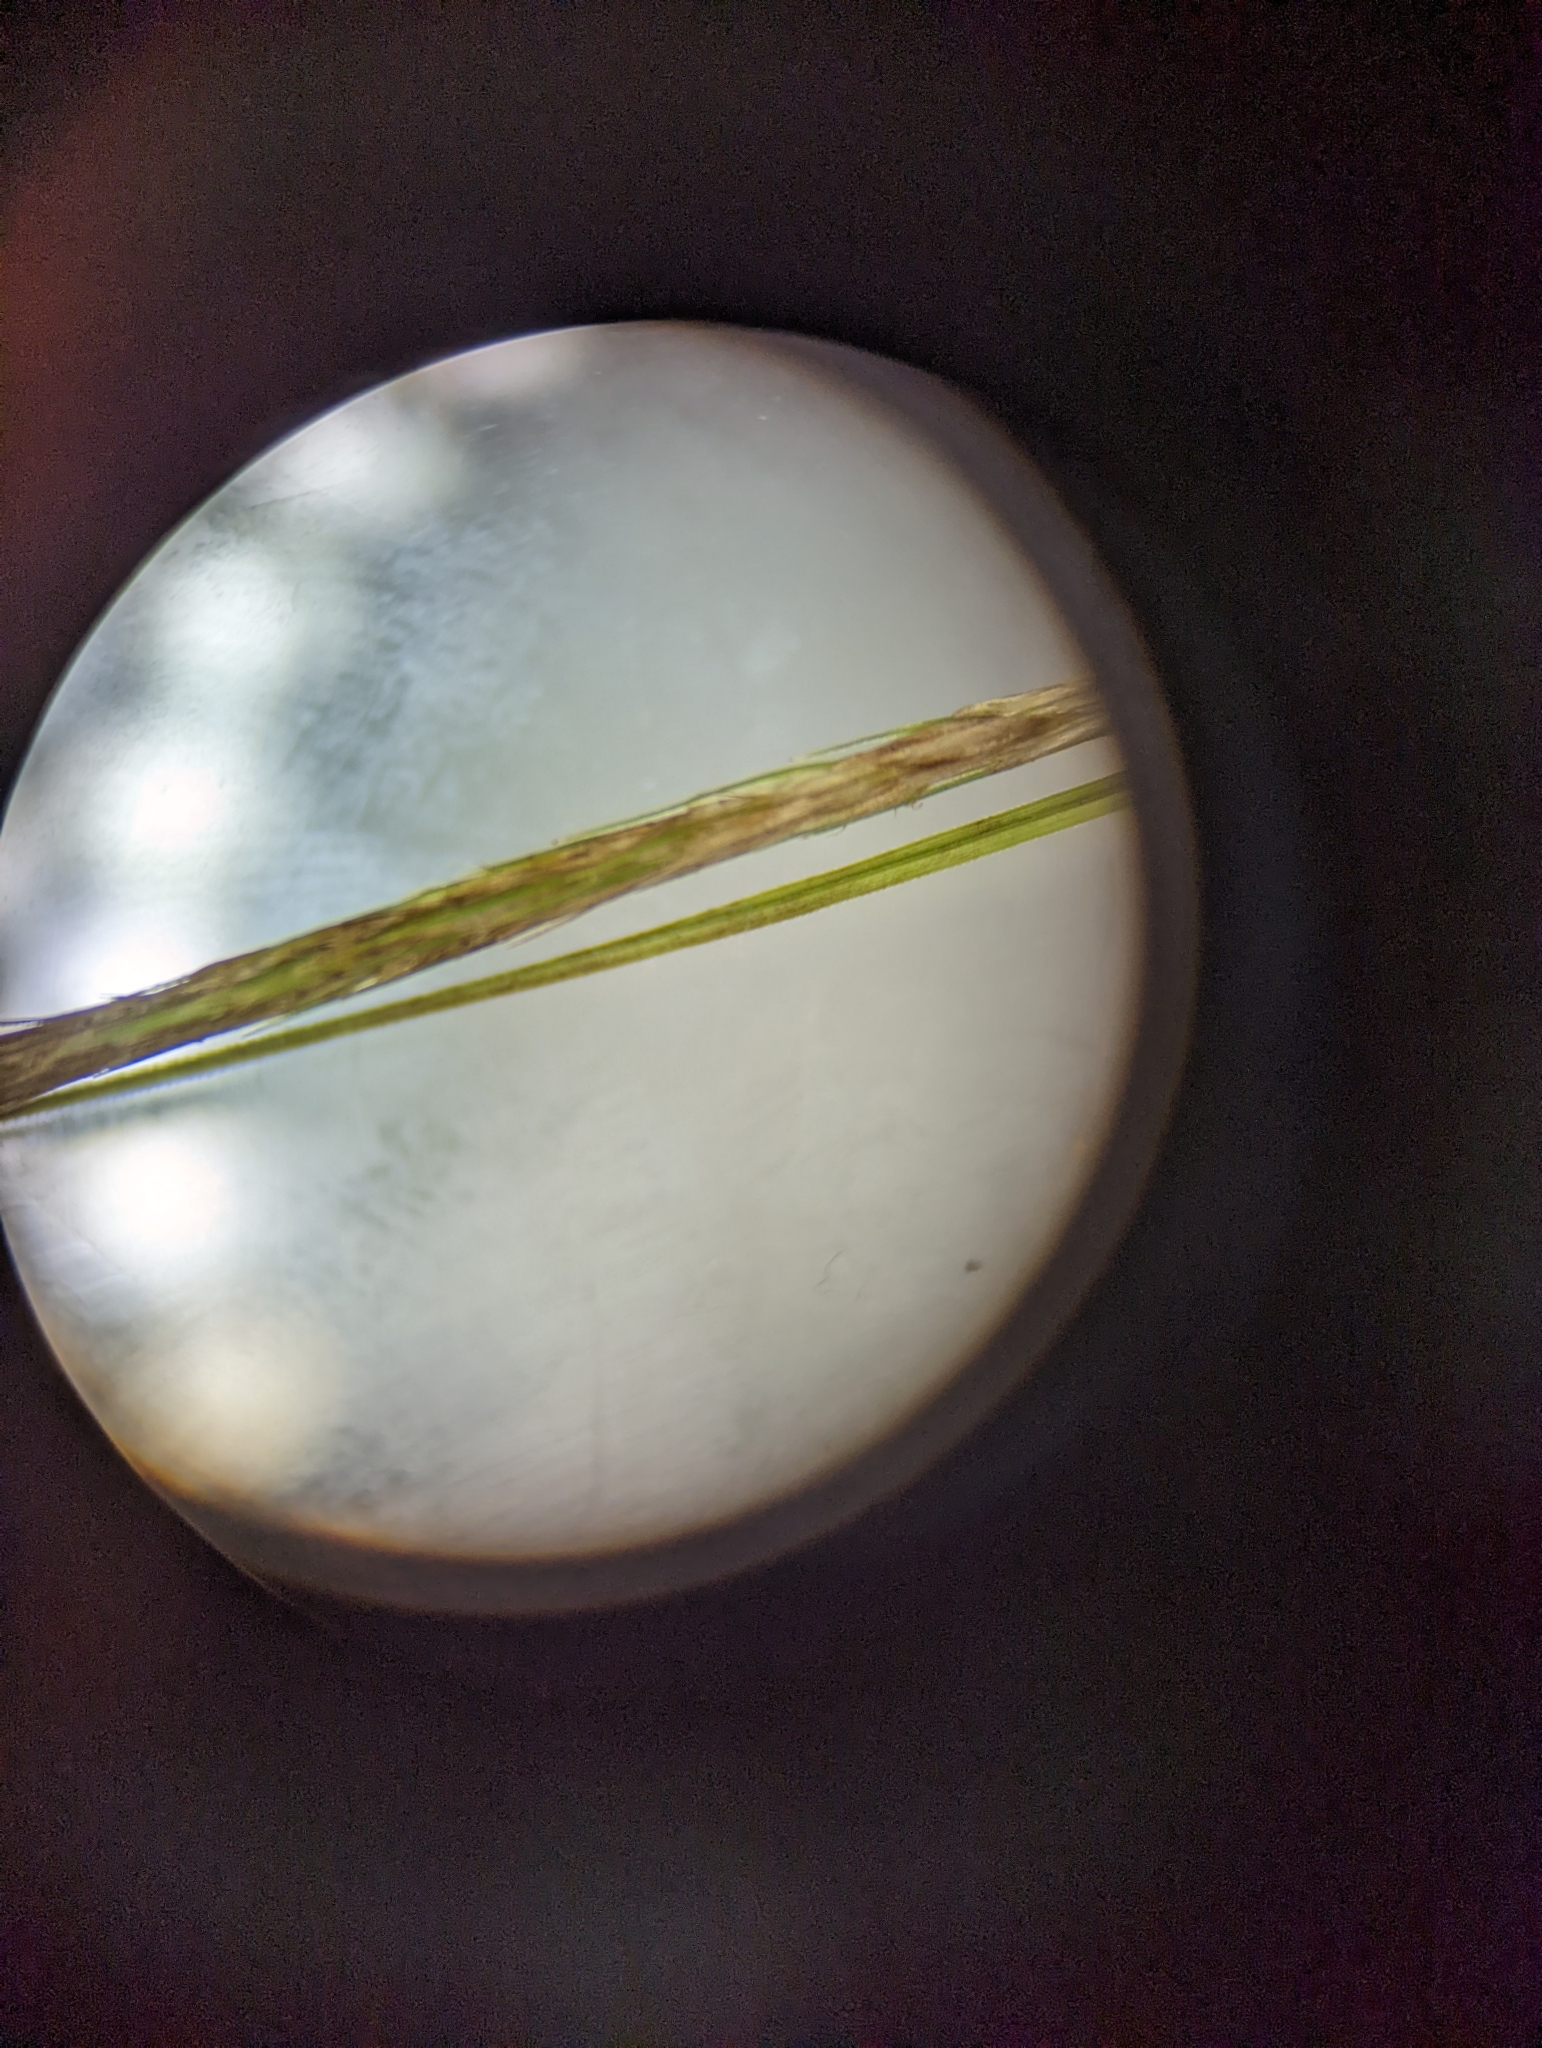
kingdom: Plantae
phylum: Tracheophyta
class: Liliopsida
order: Poales
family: Cyperaceae
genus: Carex
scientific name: Carex lurida
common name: Sallow sedge
